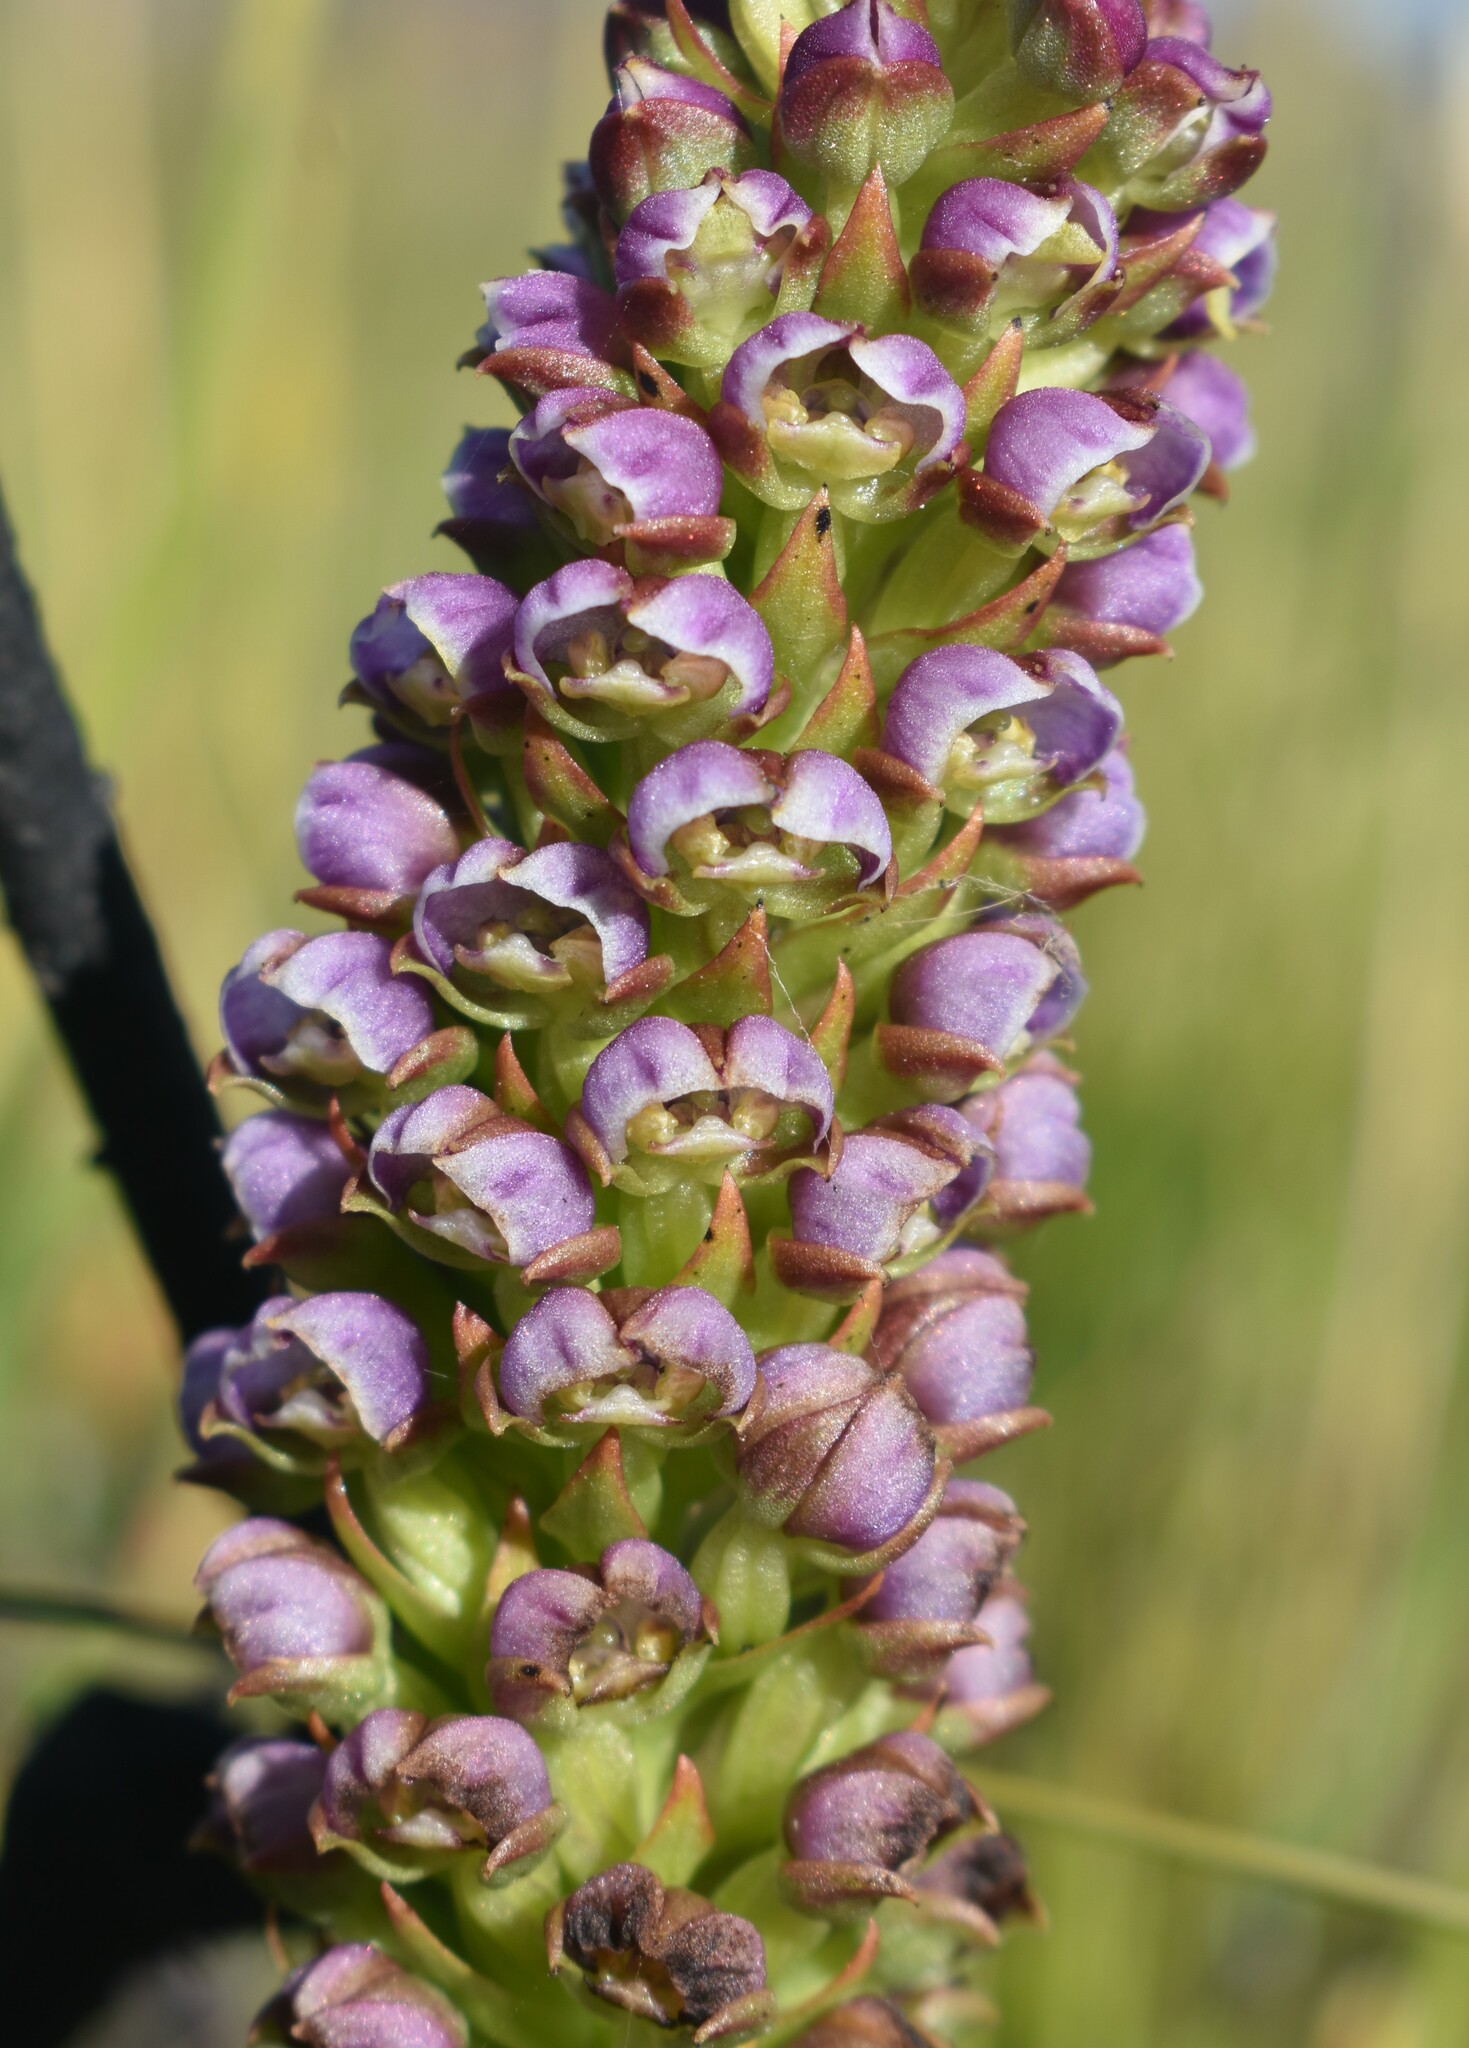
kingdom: Plantae
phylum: Tracheophyta
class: Liliopsida
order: Asparagales
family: Orchidaceae
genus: Evotella
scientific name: Evotella carnosa
